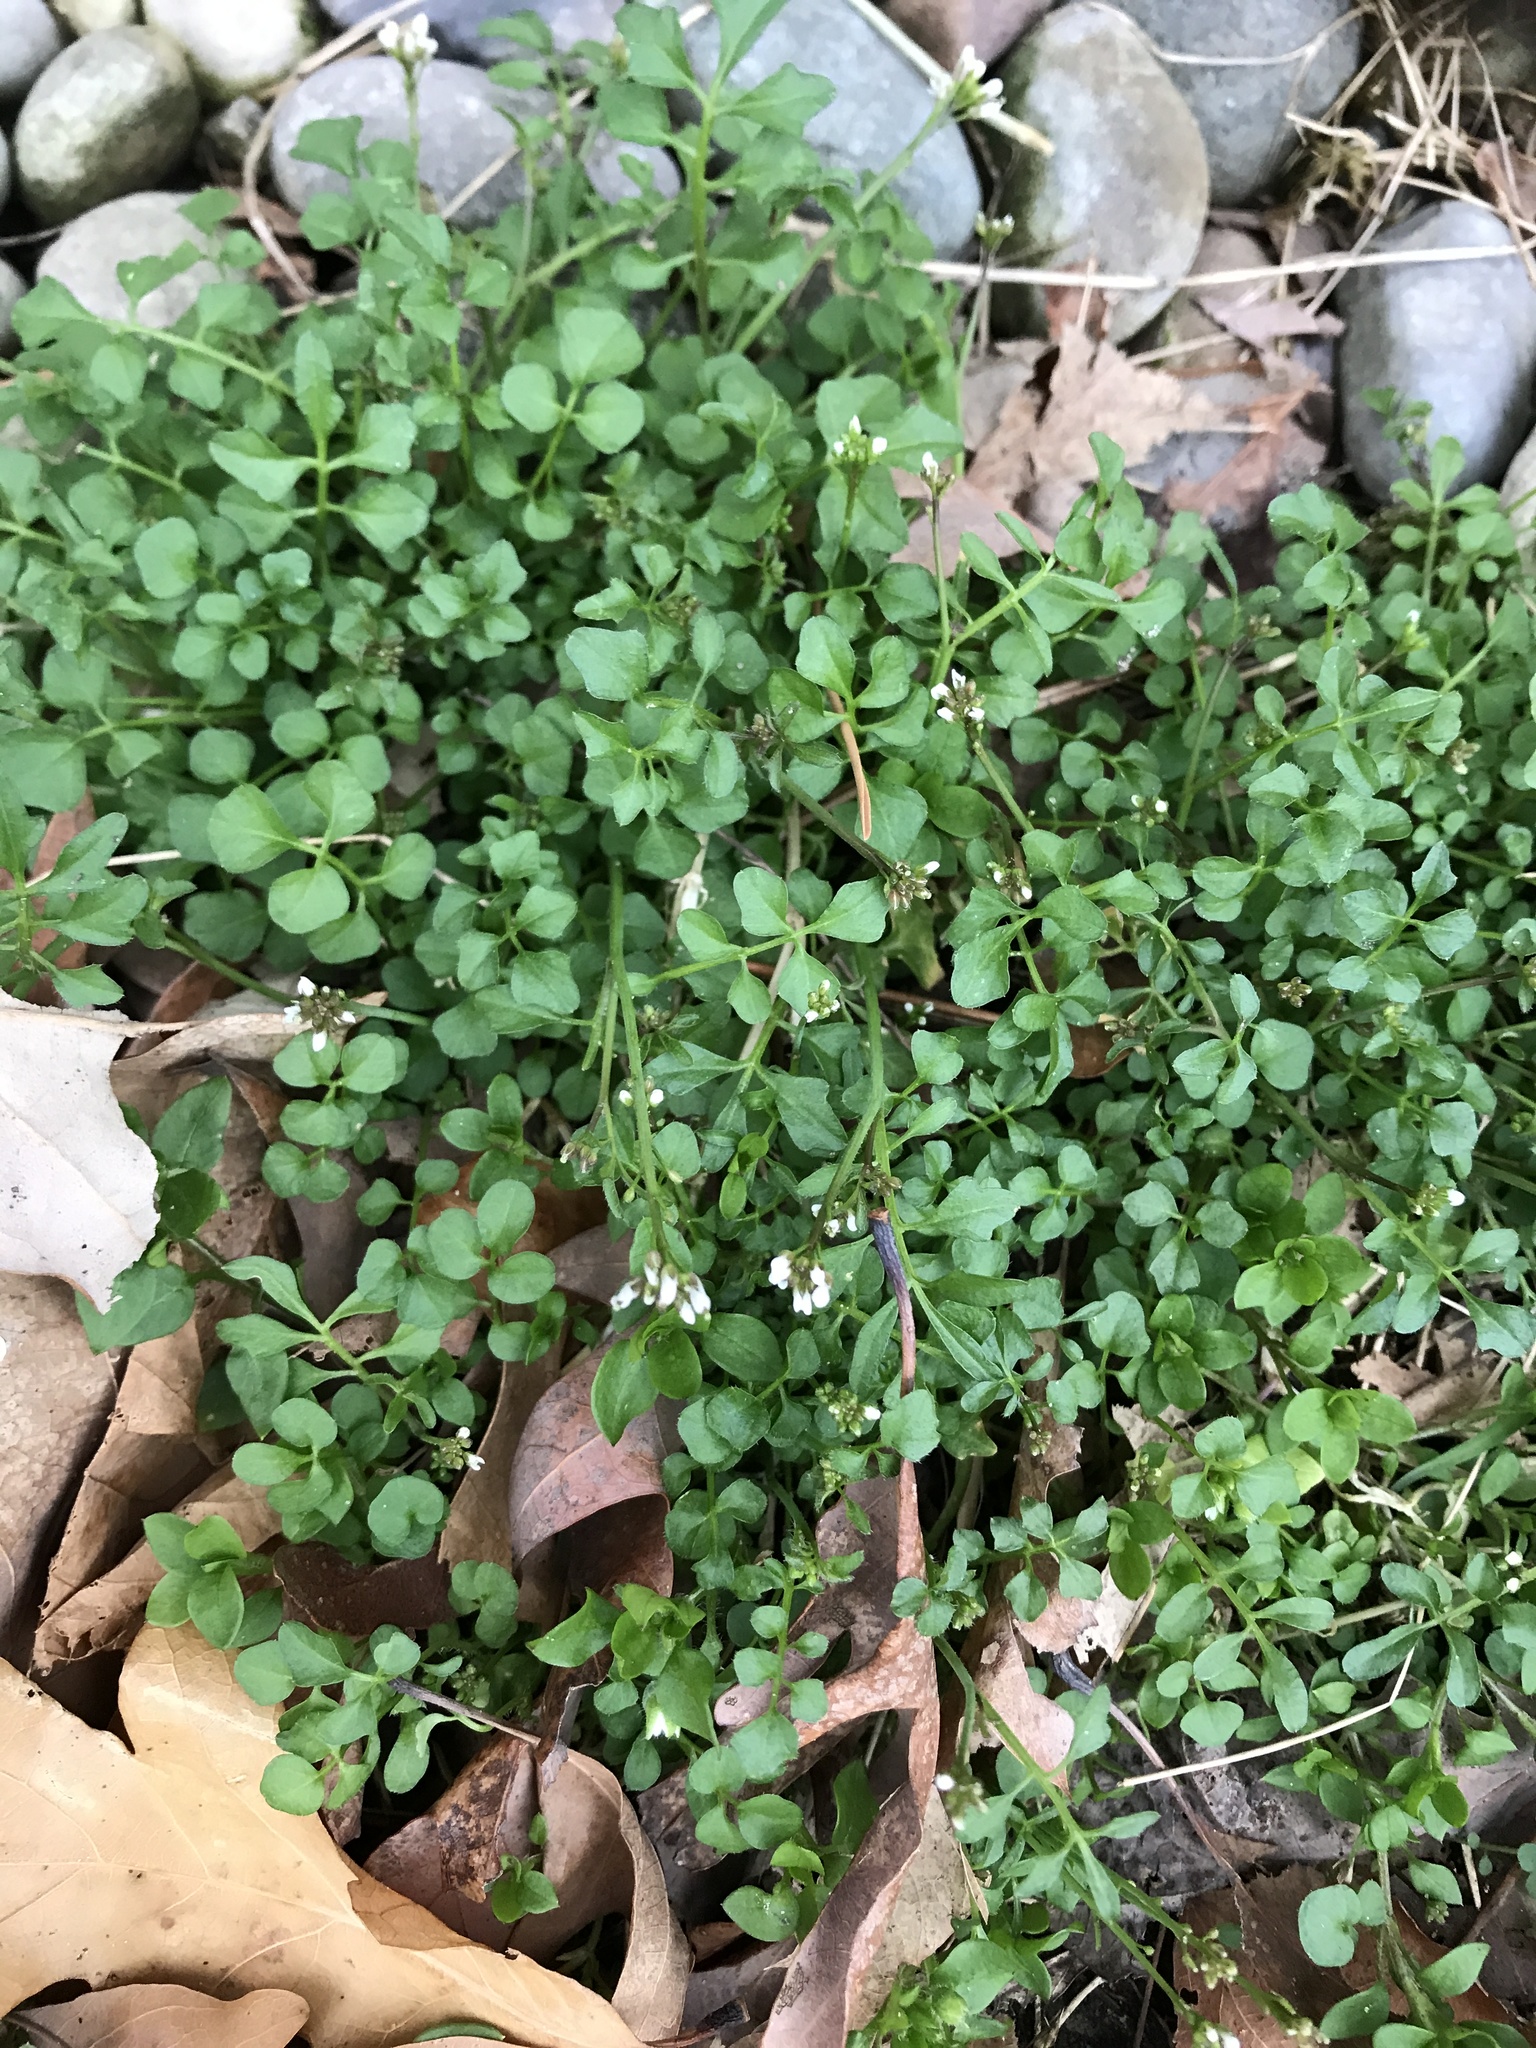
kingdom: Plantae
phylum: Tracheophyta
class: Magnoliopsida
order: Brassicales
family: Brassicaceae
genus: Cardamine
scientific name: Cardamine hirsuta
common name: Hairy bittercress
